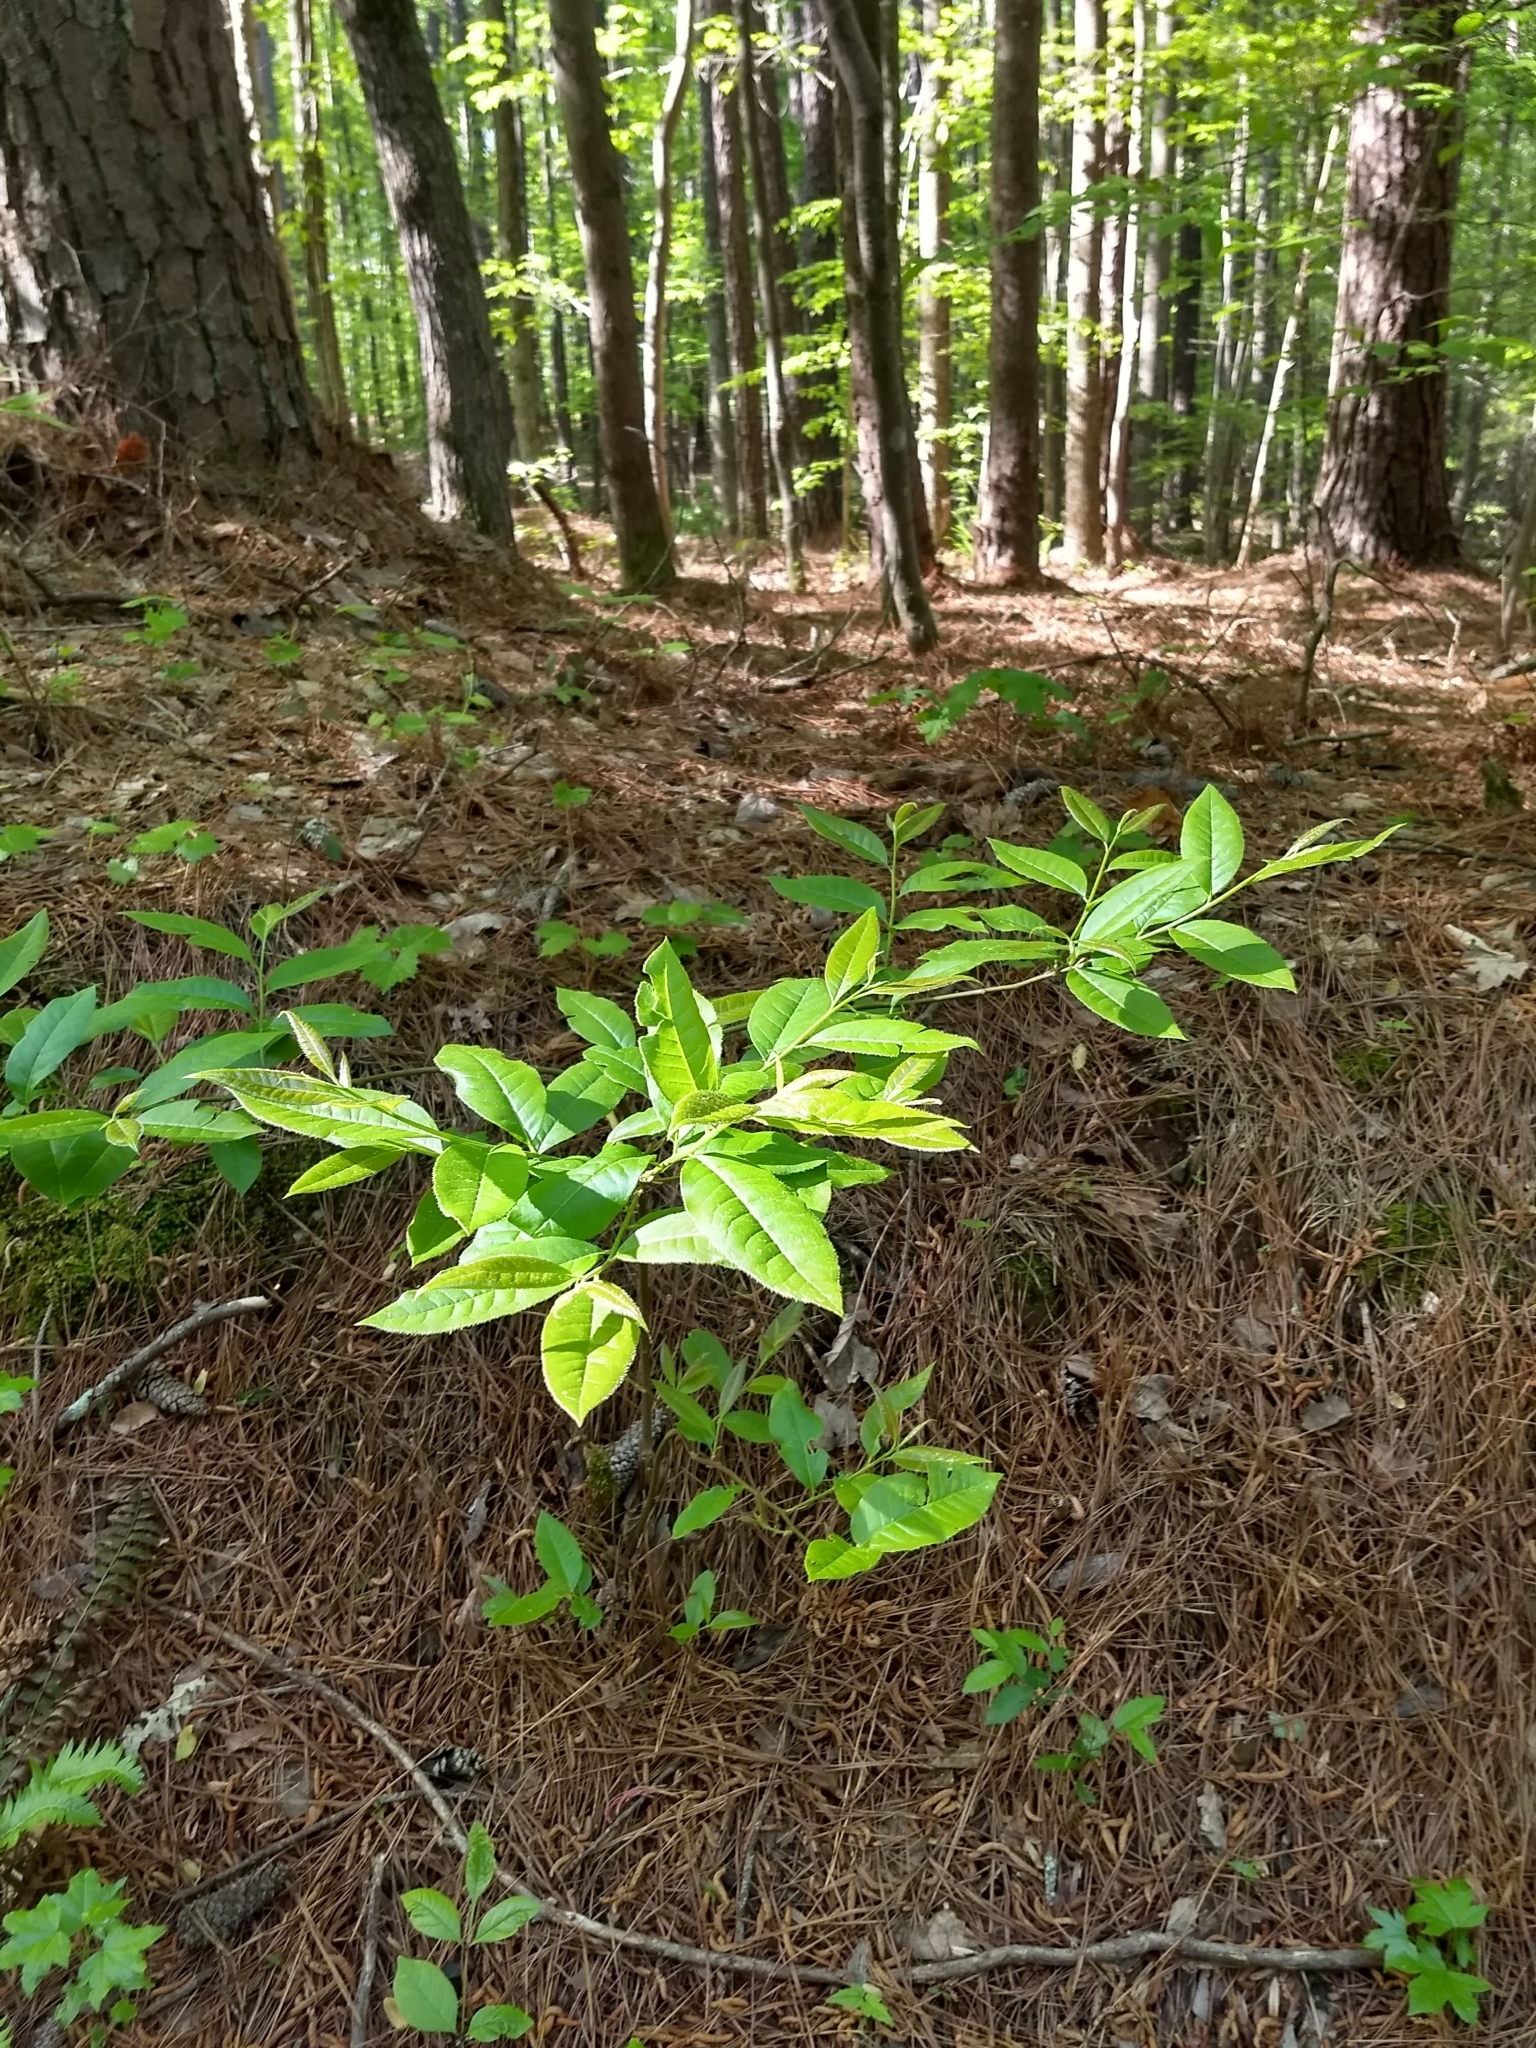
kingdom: Plantae
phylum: Tracheophyta
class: Magnoliopsida
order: Ericales
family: Ericaceae
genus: Oxydendrum
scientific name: Oxydendrum arboreum
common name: Sourwood
